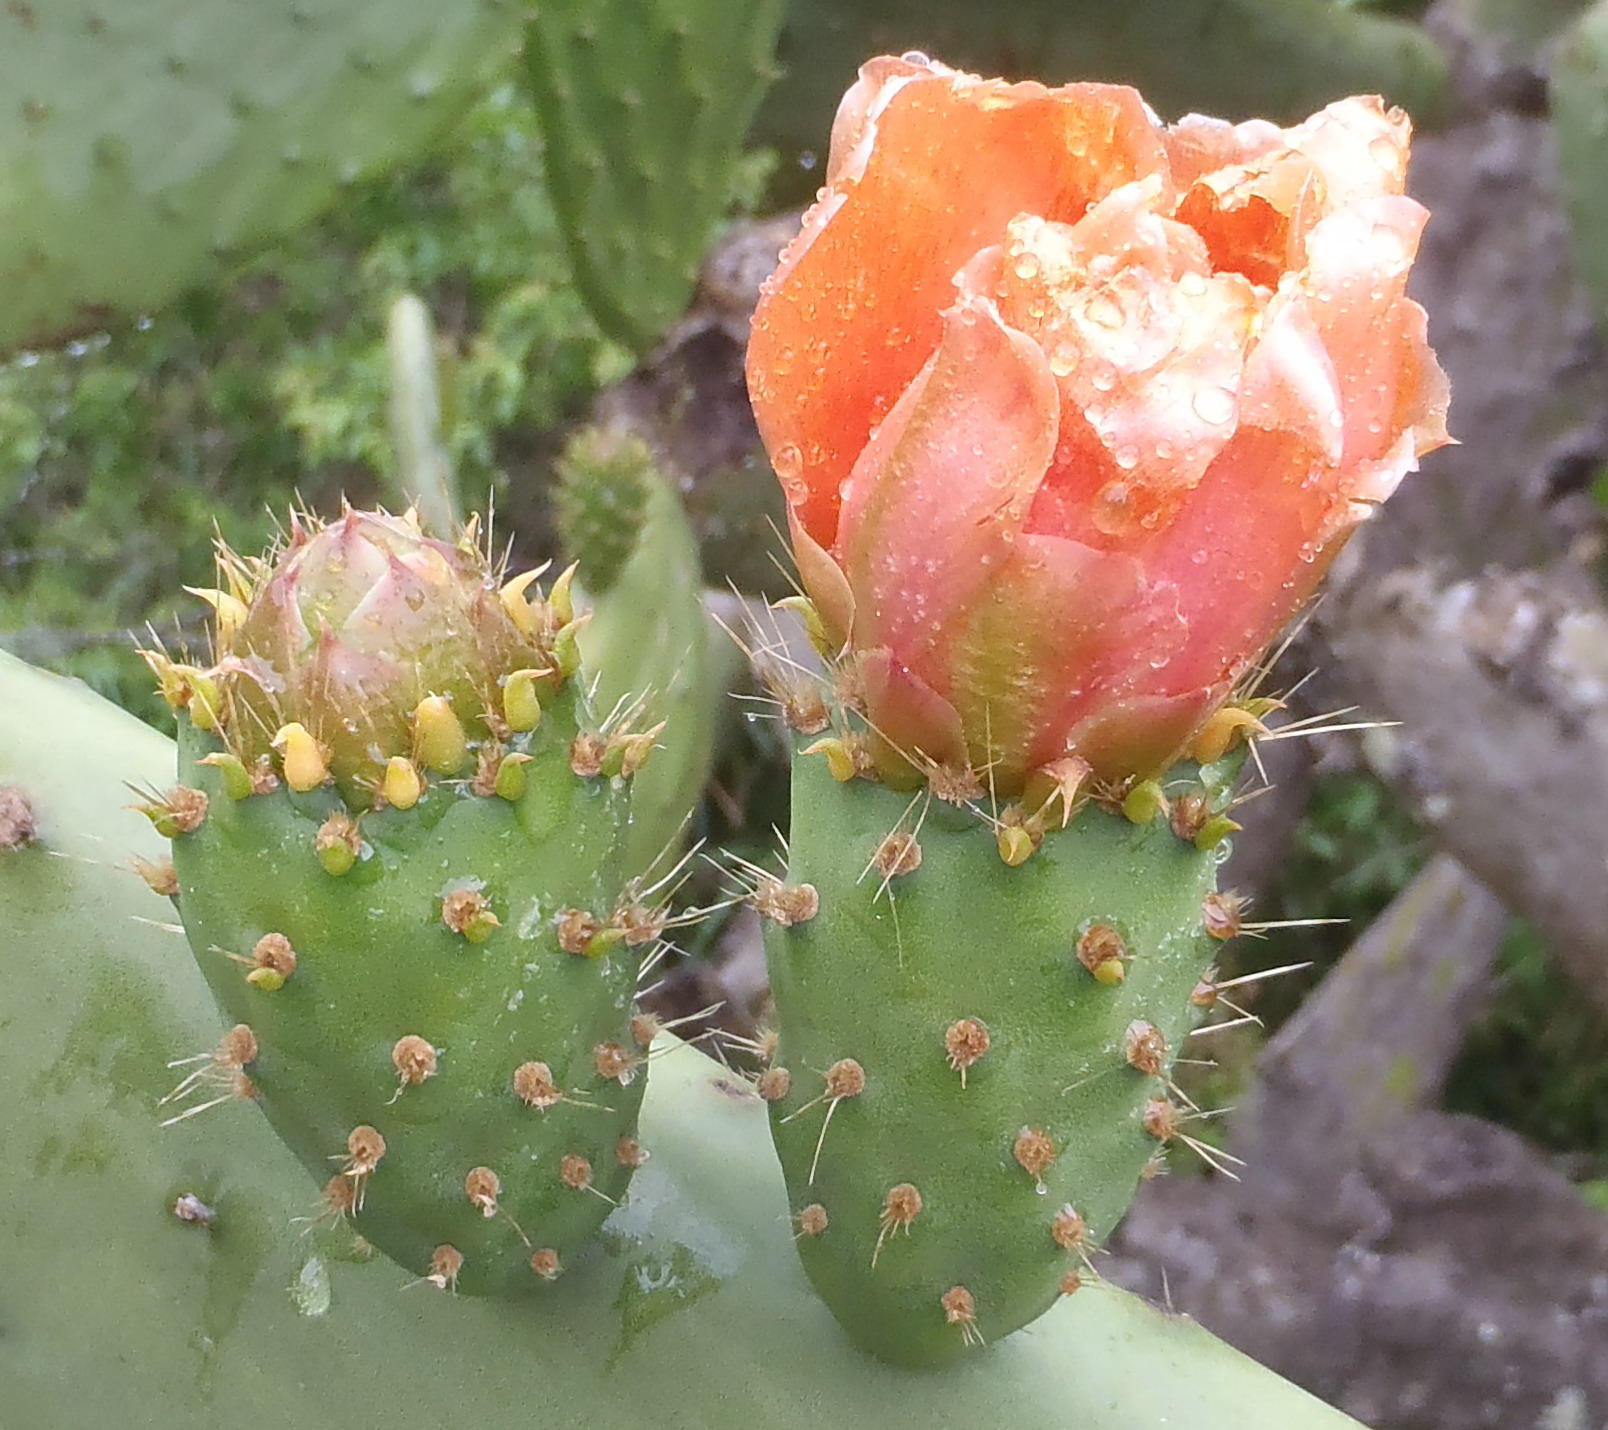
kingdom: Plantae
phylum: Tracheophyta
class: Magnoliopsida
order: Caryophyllales
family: Cactaceae
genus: Opuntia
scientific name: Opuntia ficus-indica
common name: Barbary fig
